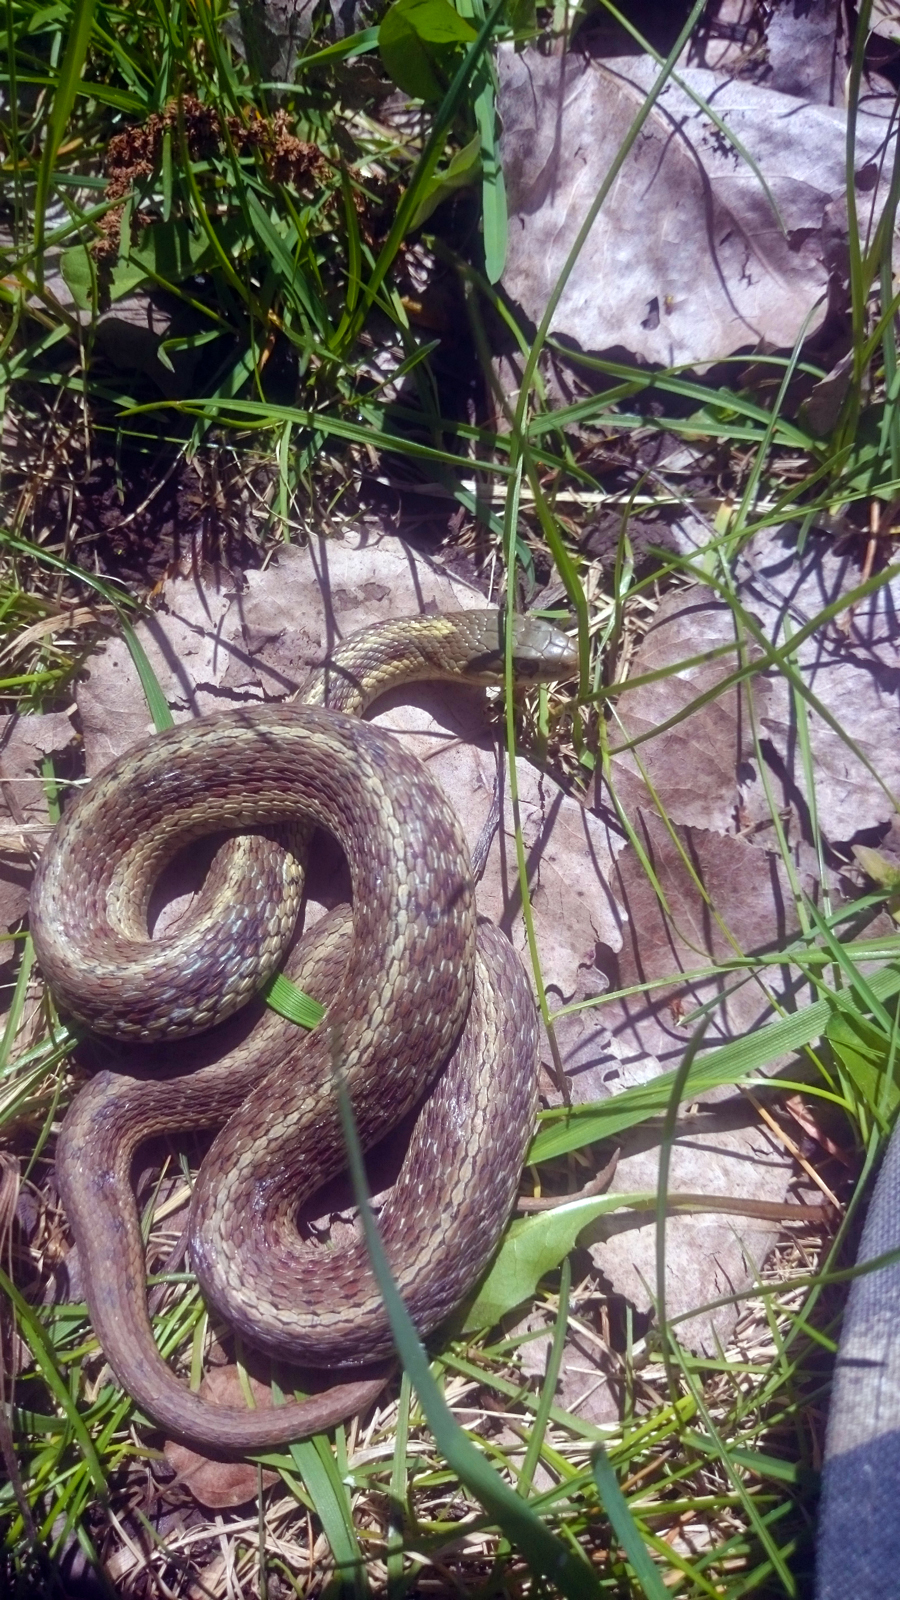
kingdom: Animalia
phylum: Chordata
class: Squamata
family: Colubridae
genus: Thamnophis
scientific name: Thamnophis sirtalis
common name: Common garter snake
